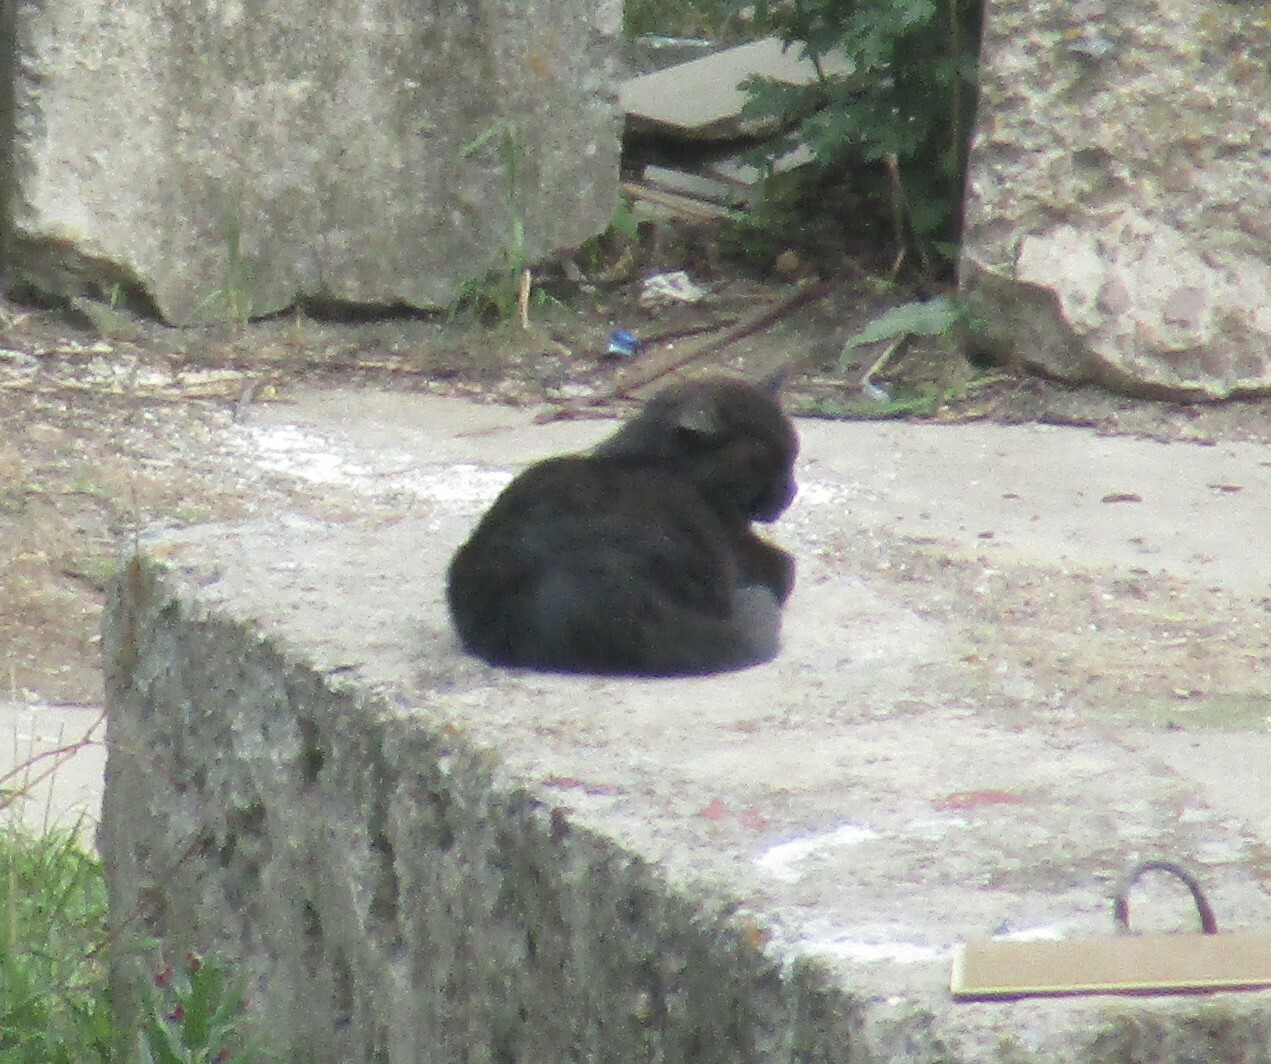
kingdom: Animalia
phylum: Chordata
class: Mammalia
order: Carnivora
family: Felidae
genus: Felis
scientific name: Felis catus
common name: Domestic cat
